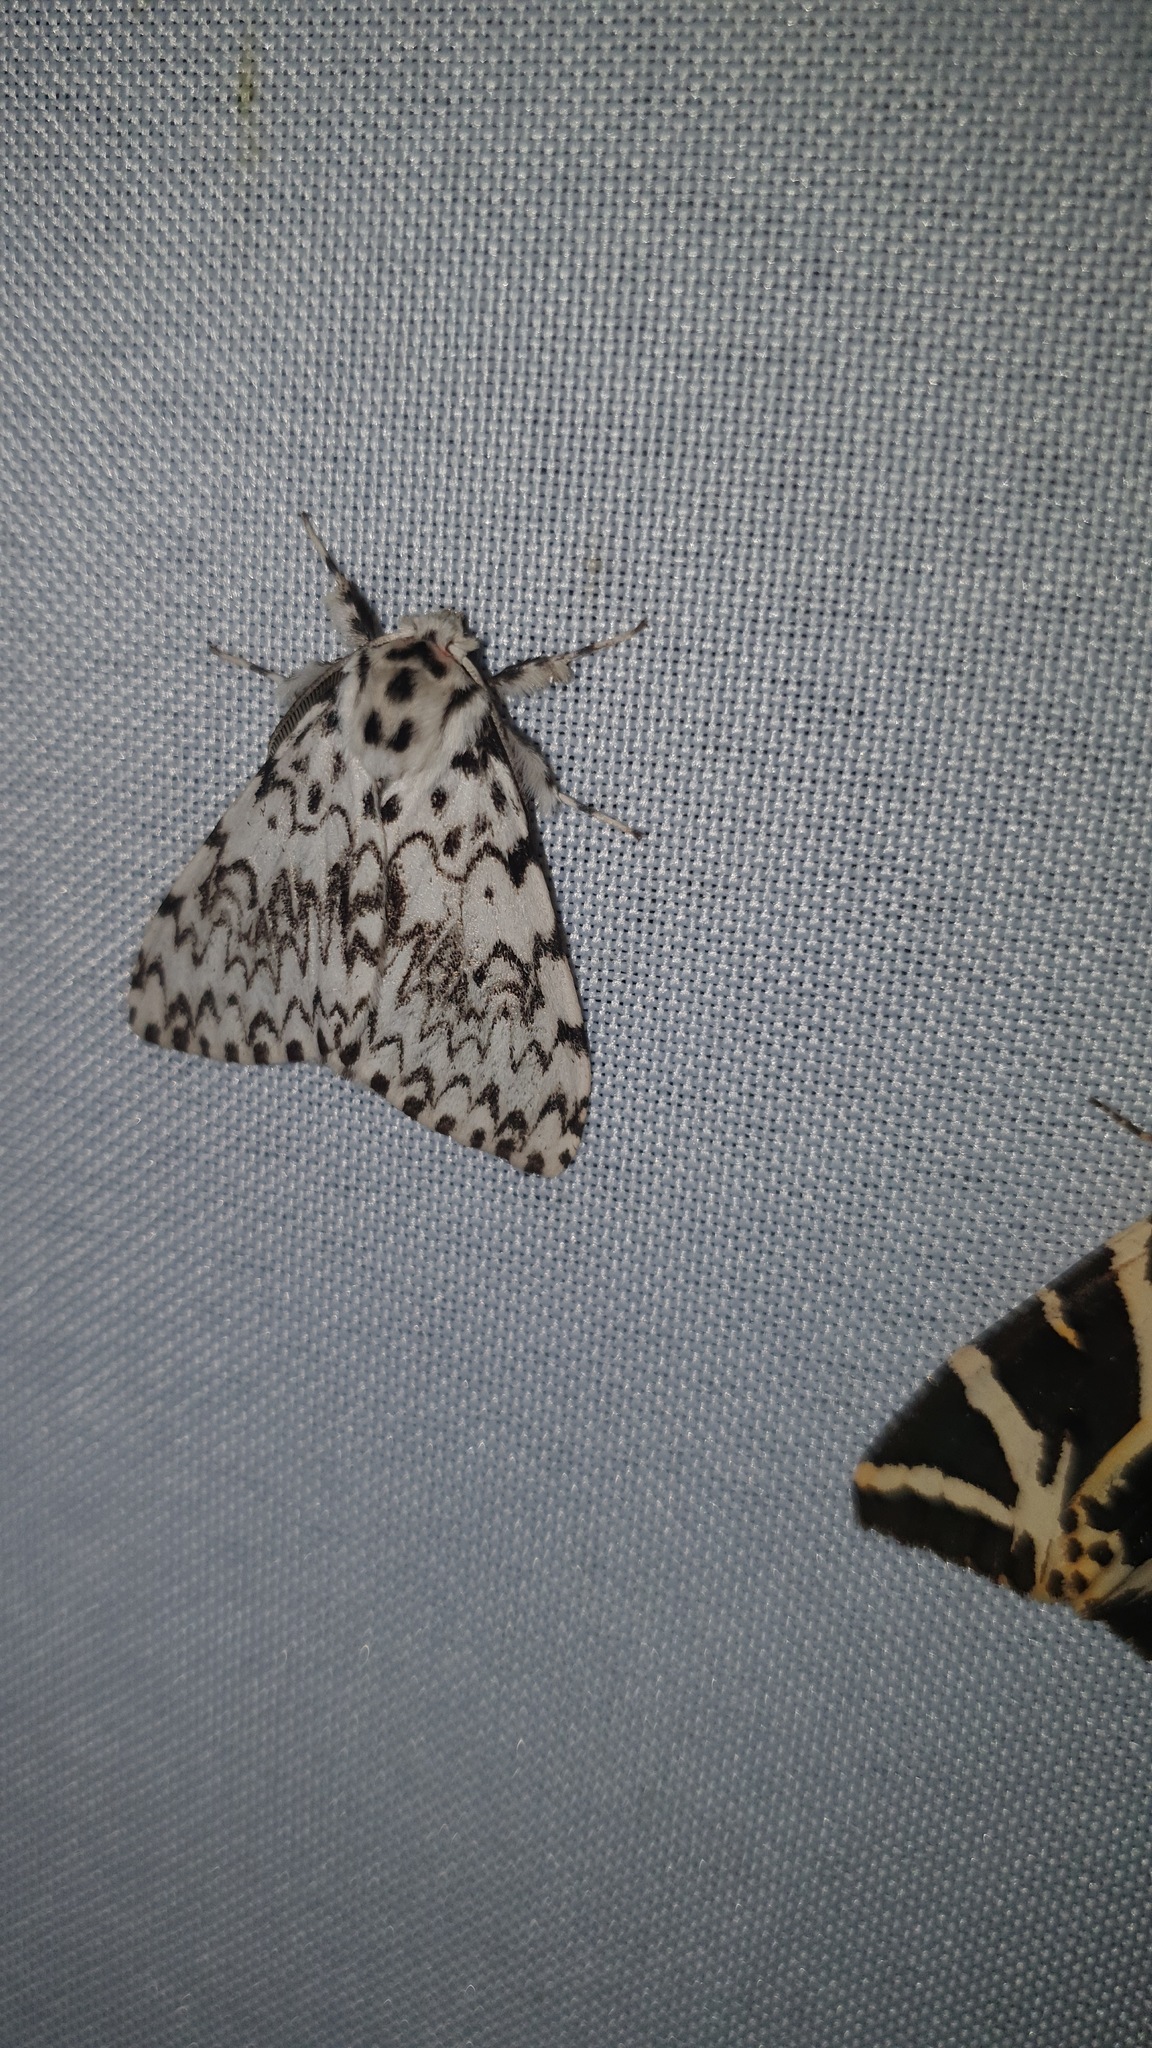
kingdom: Animalia
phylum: Arthropoda
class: Insecta
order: Lepidoptera
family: Erebidae
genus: Lymantria
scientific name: Lymantria monacha
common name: Black arches
